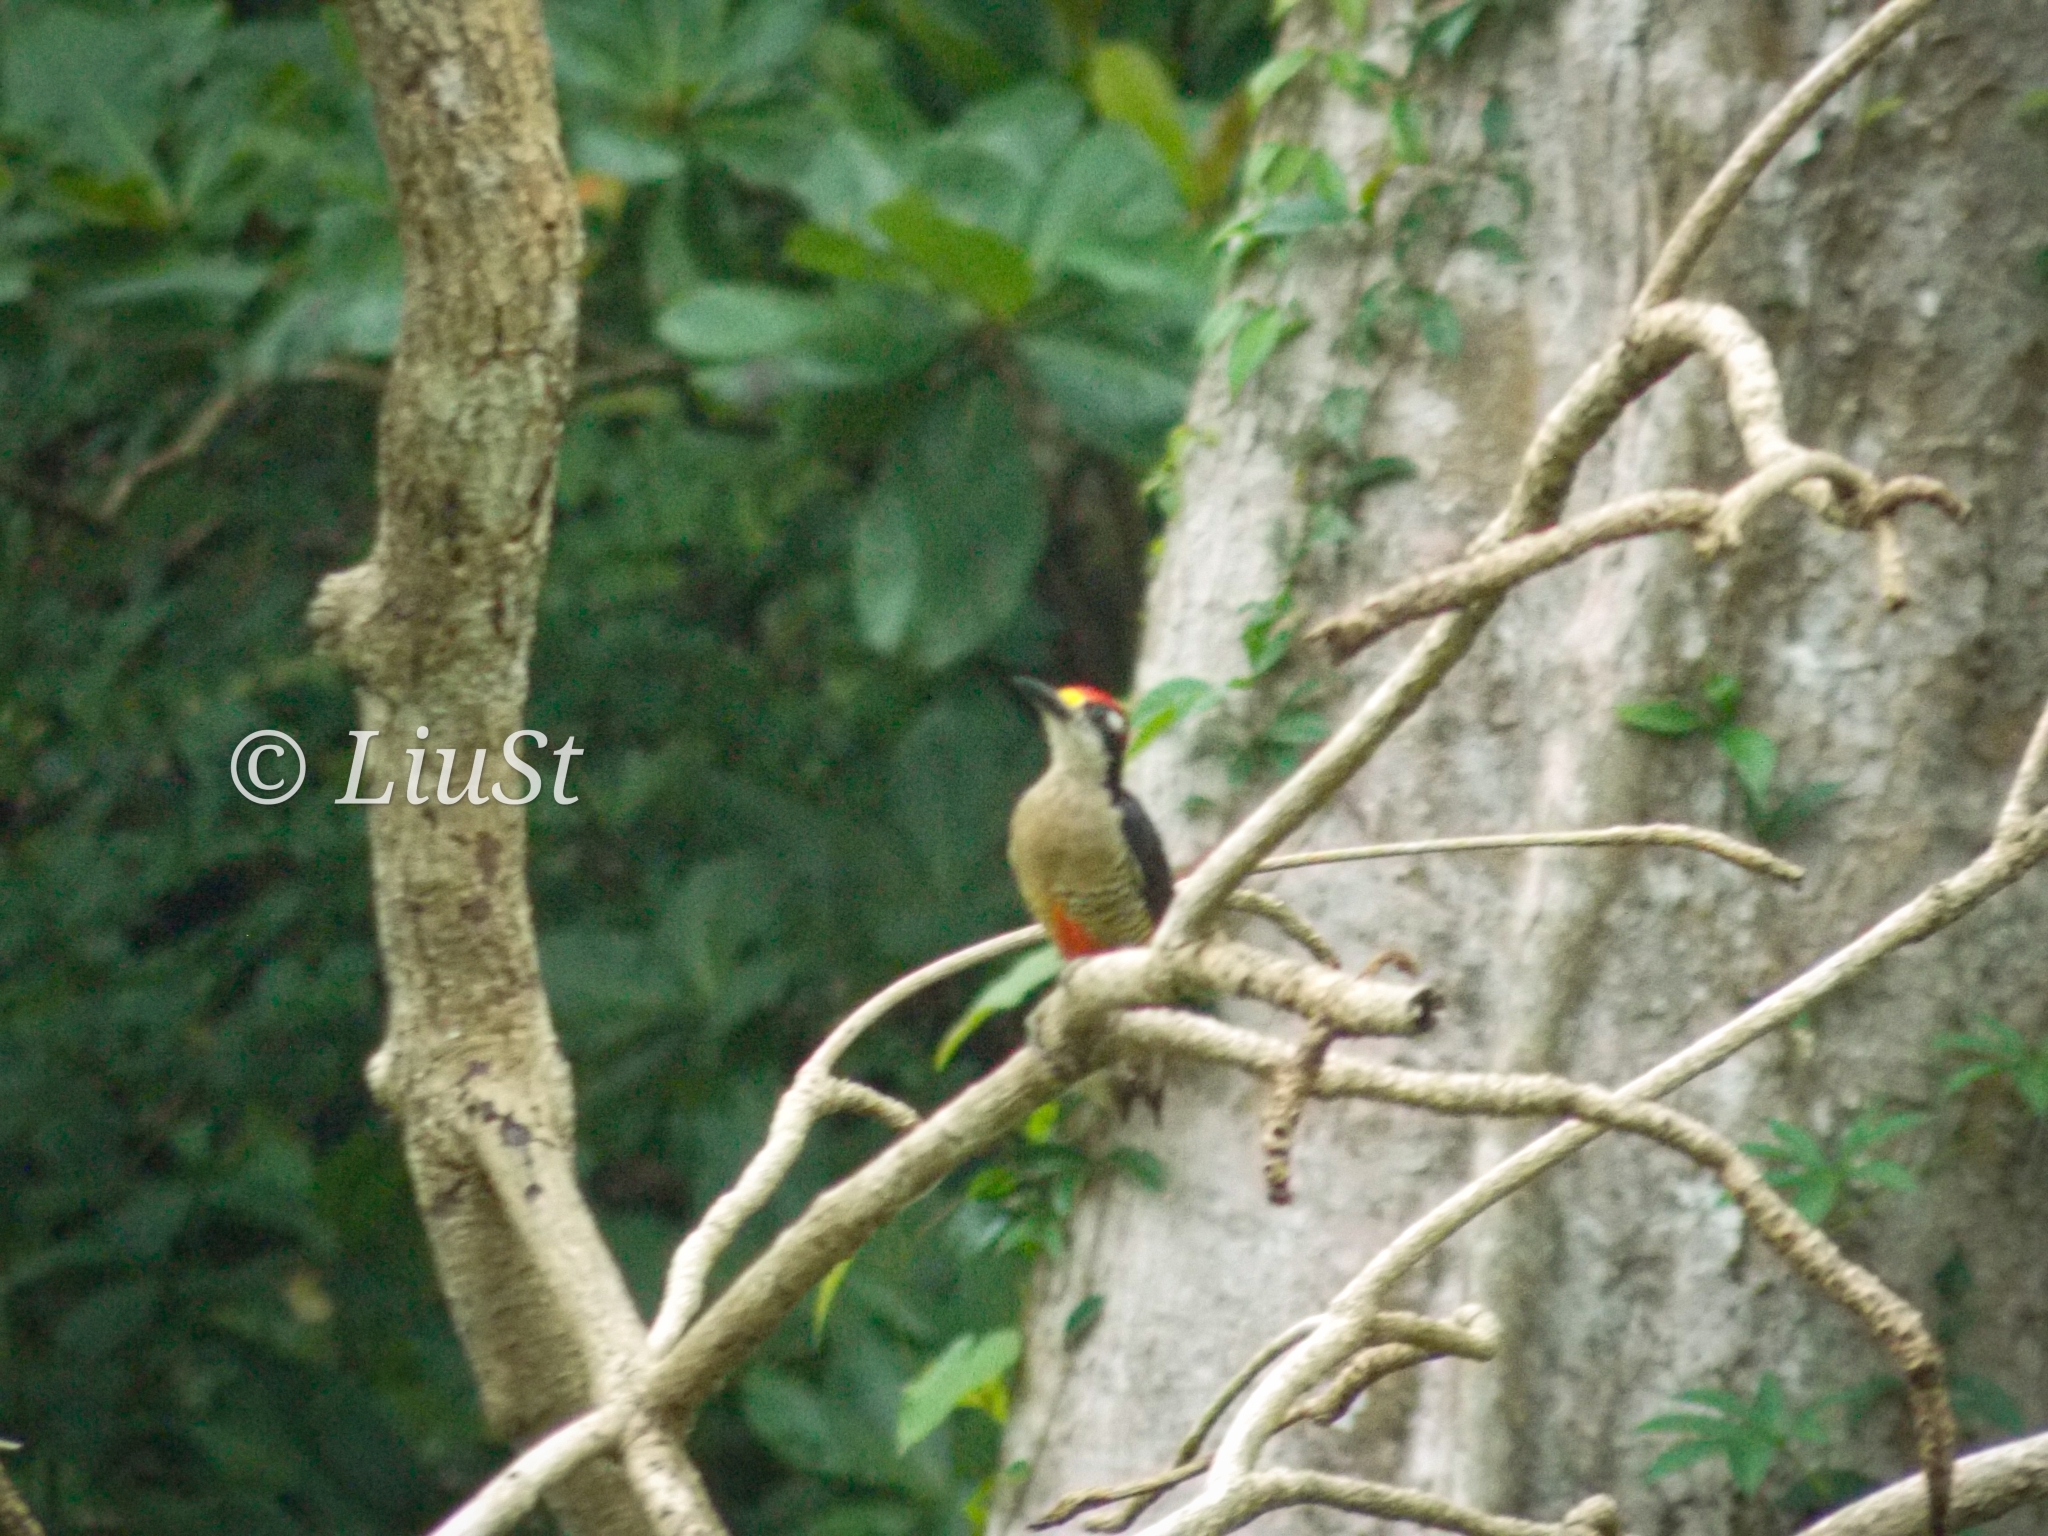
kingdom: Animalia
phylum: Chordata
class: Aves
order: Piciformes
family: Picidae
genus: Melanerpes
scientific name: Melanerpes pucherani
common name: Black-cheeked woodpecker
